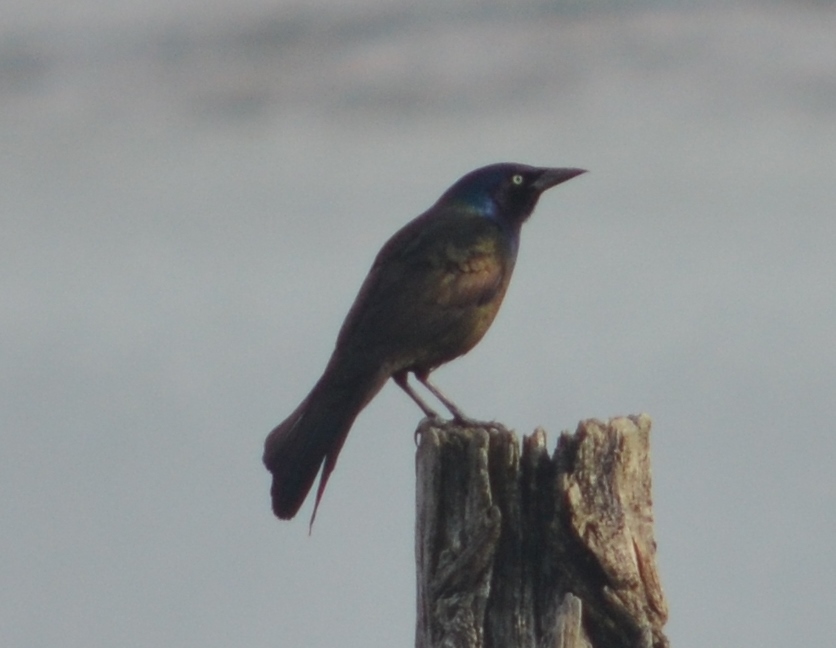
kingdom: Animalia
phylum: Chordata
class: Aves
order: Passeriformes
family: Icteridae
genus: Quiscalus
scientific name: Quiscalus quiscula
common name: Common grackle
